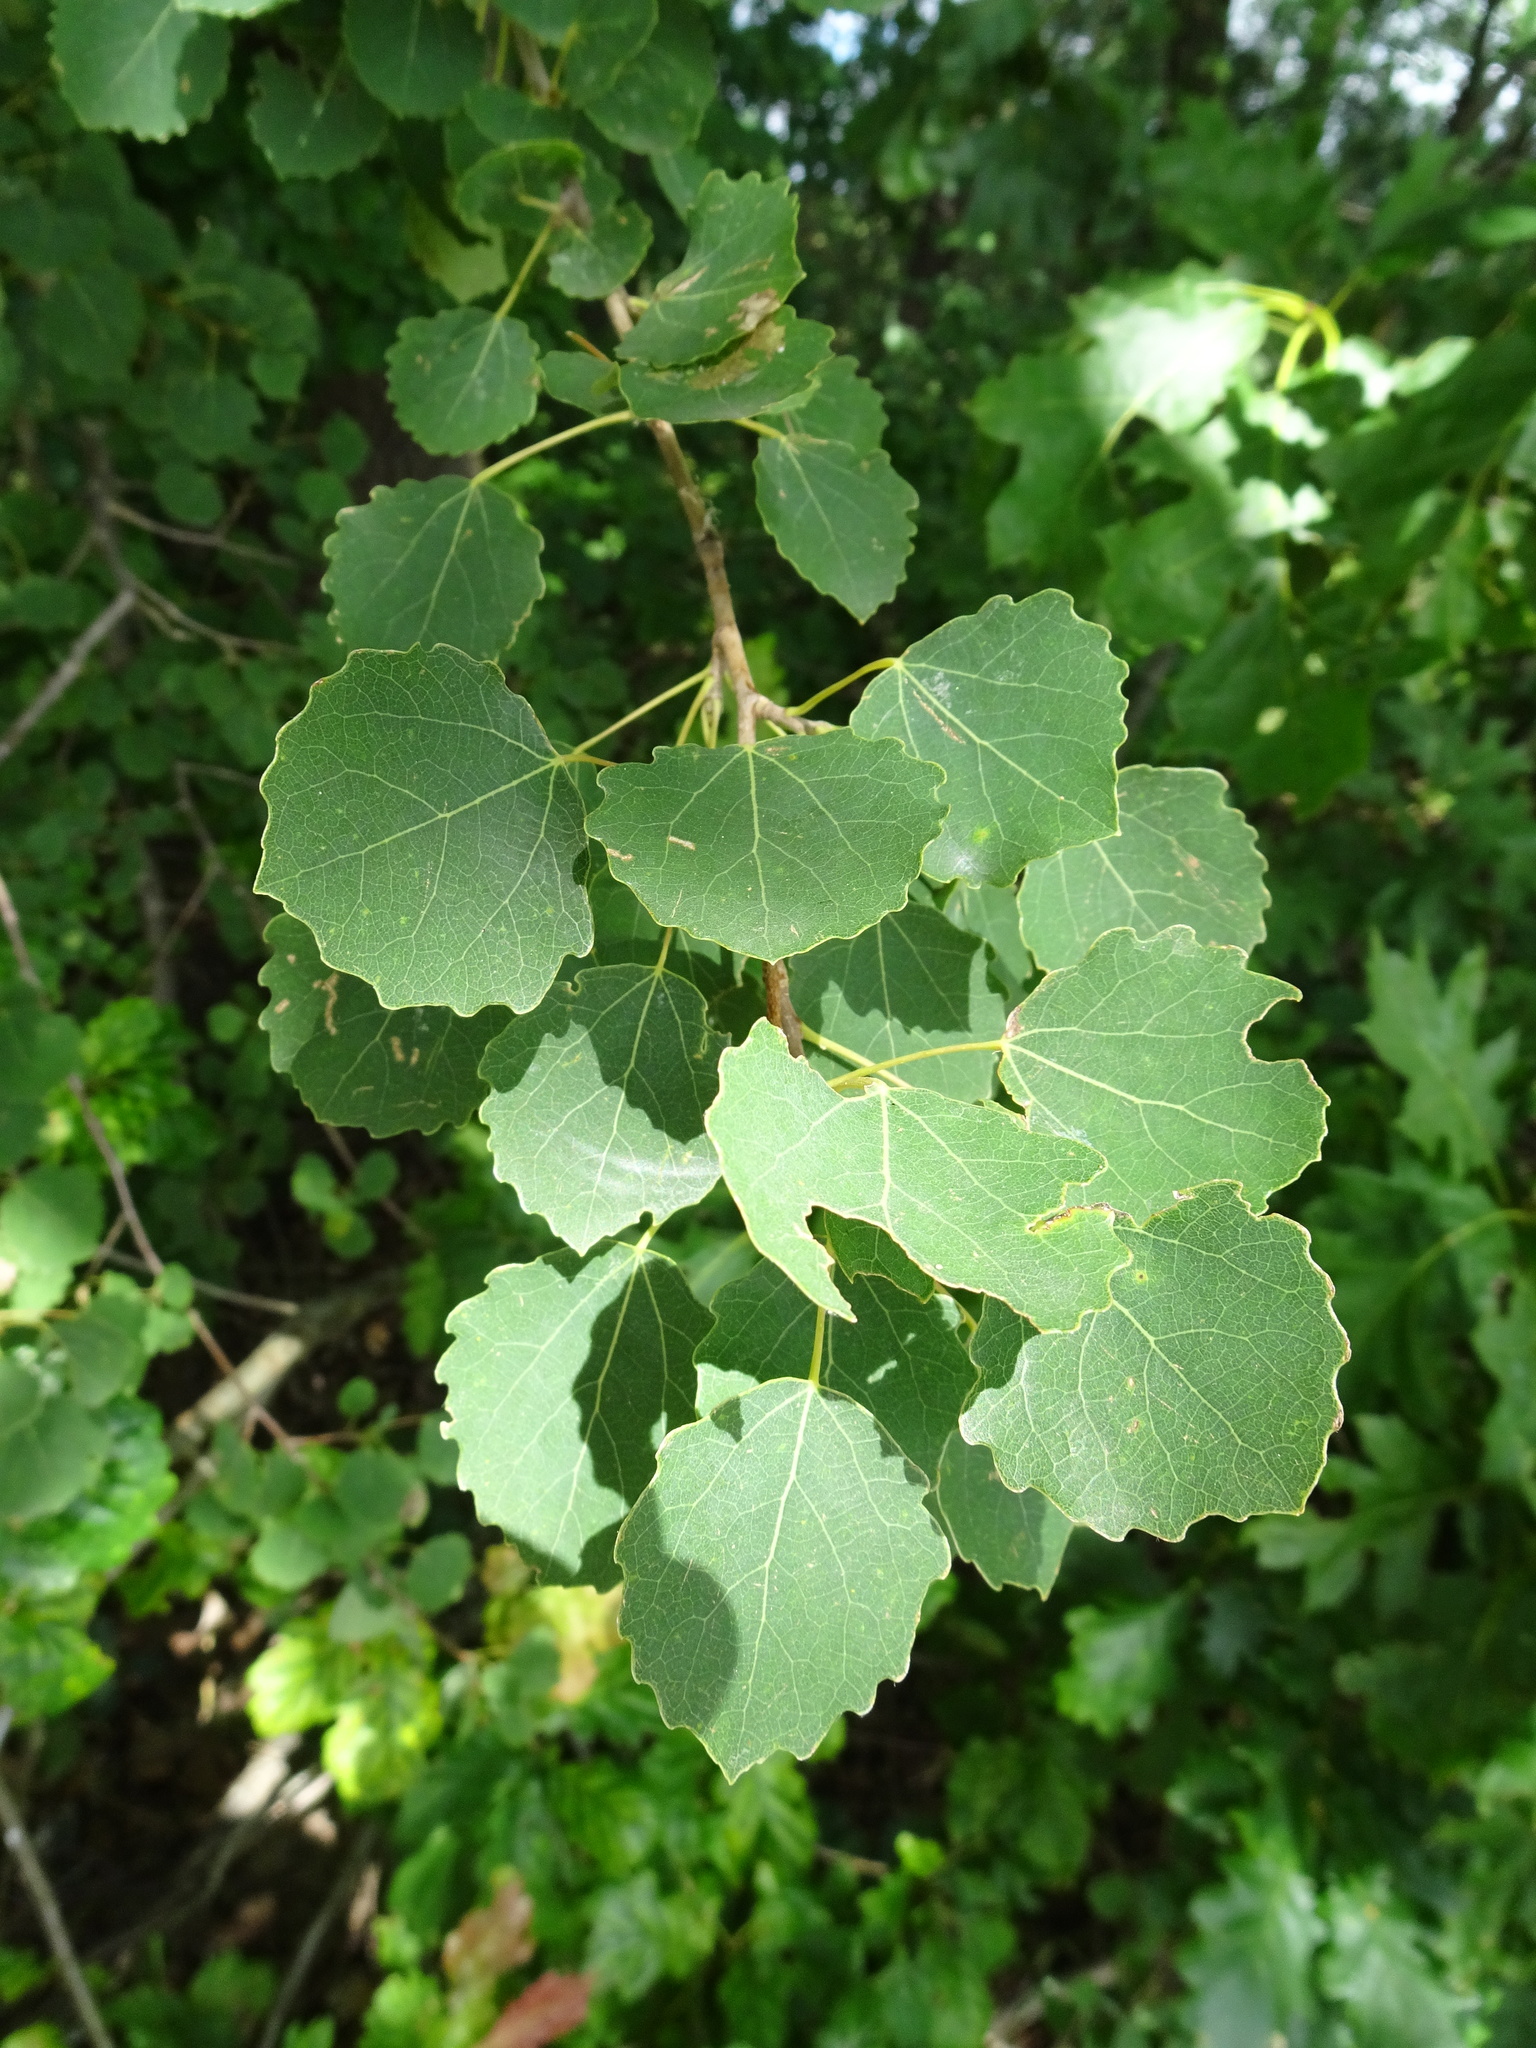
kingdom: Plantae
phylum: Tracheophyta
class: Magnoliopsida
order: Malpighiales
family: Salicaceae
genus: Populus
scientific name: Populus tremula
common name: European aspen
